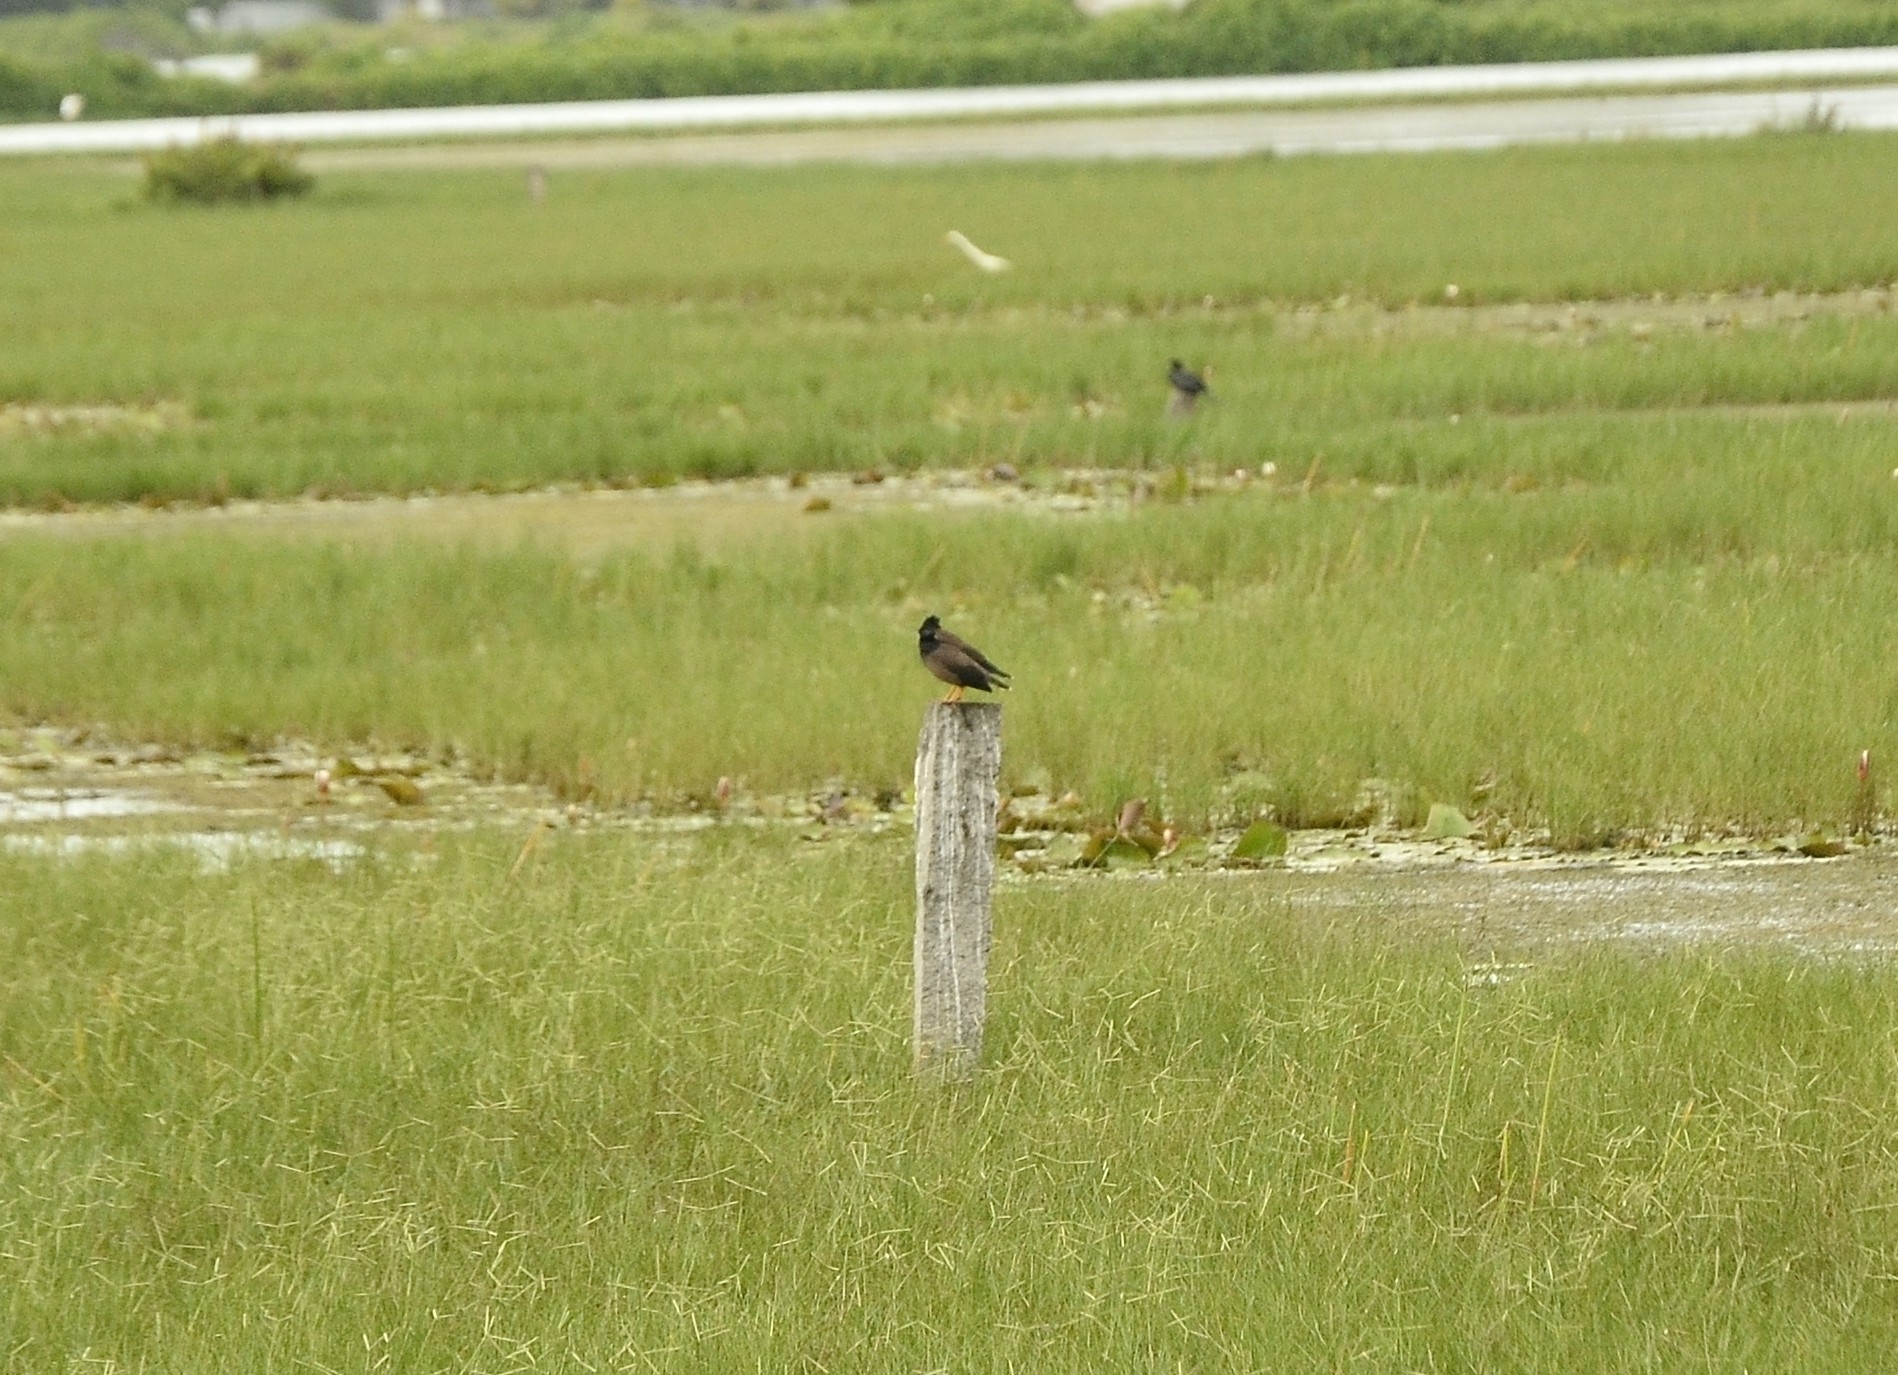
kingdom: Animalia
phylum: Chordata
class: Aves
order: Passeriformes
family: Sturnidae
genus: Acridotheres
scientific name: Acridotheres tristis
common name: Common myna
